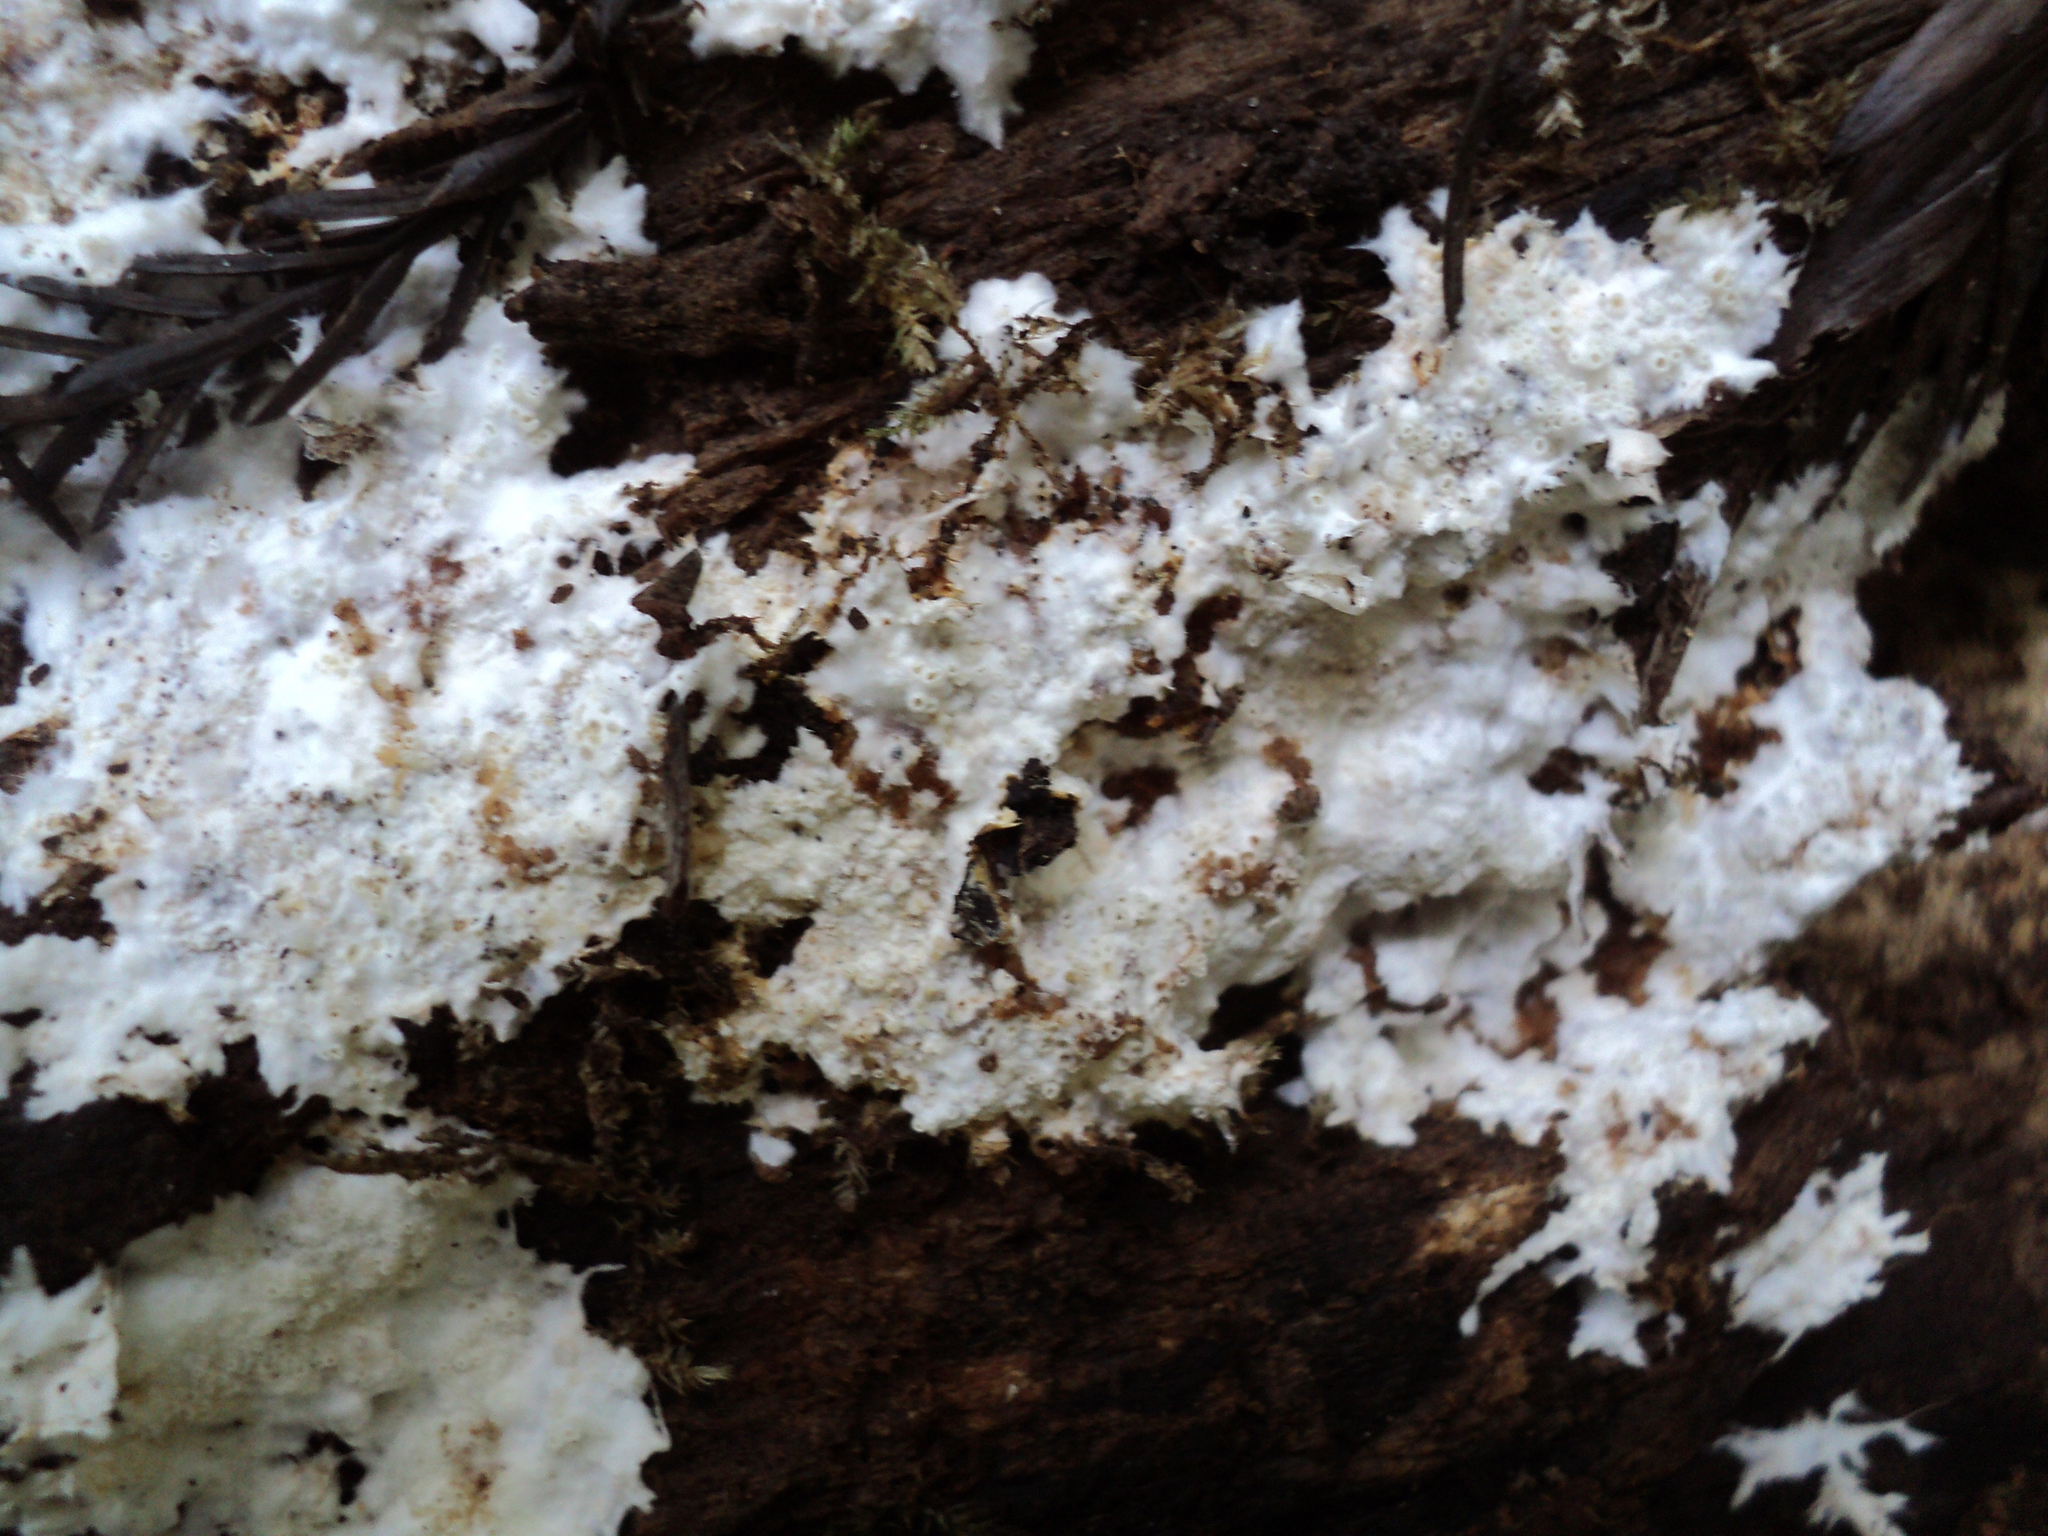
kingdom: Fungi
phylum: Basidiomycota
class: Agaricomycetes
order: Agaricales
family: Porotheleaceae
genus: Porotheleum
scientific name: Porotheleum fimbriatum
